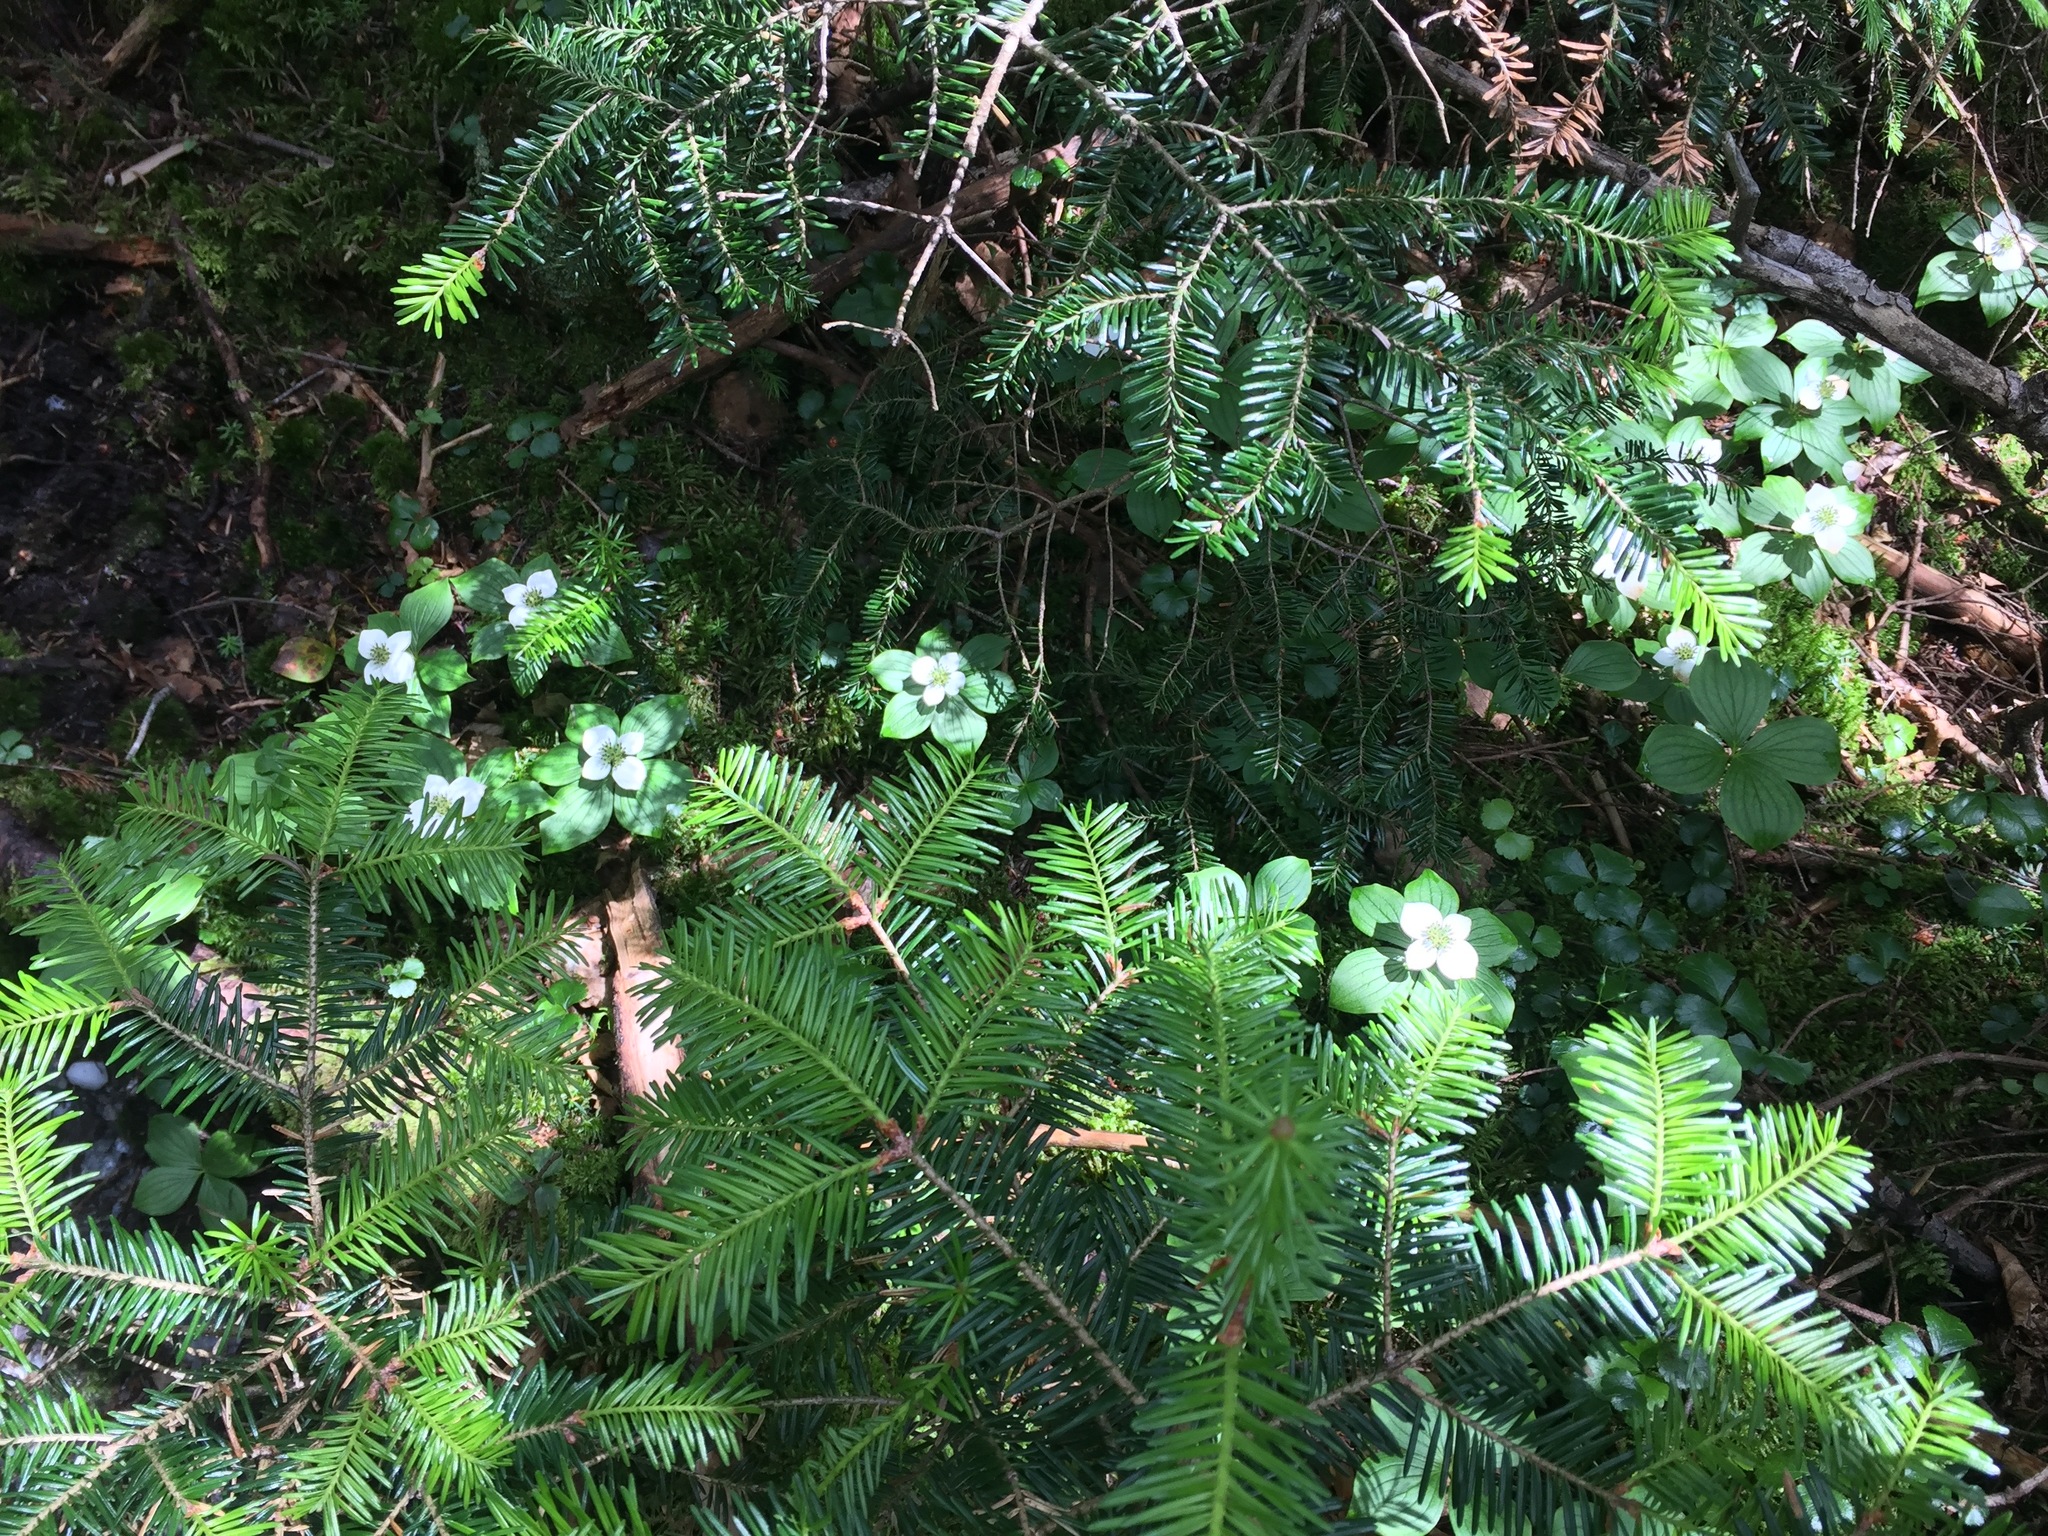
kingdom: Plantae
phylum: Tracheophyta
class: Magnoliopsida
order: Cornales
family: Cornaceae
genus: Cornus
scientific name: Cornus canadensis
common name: Creeping dogwood
